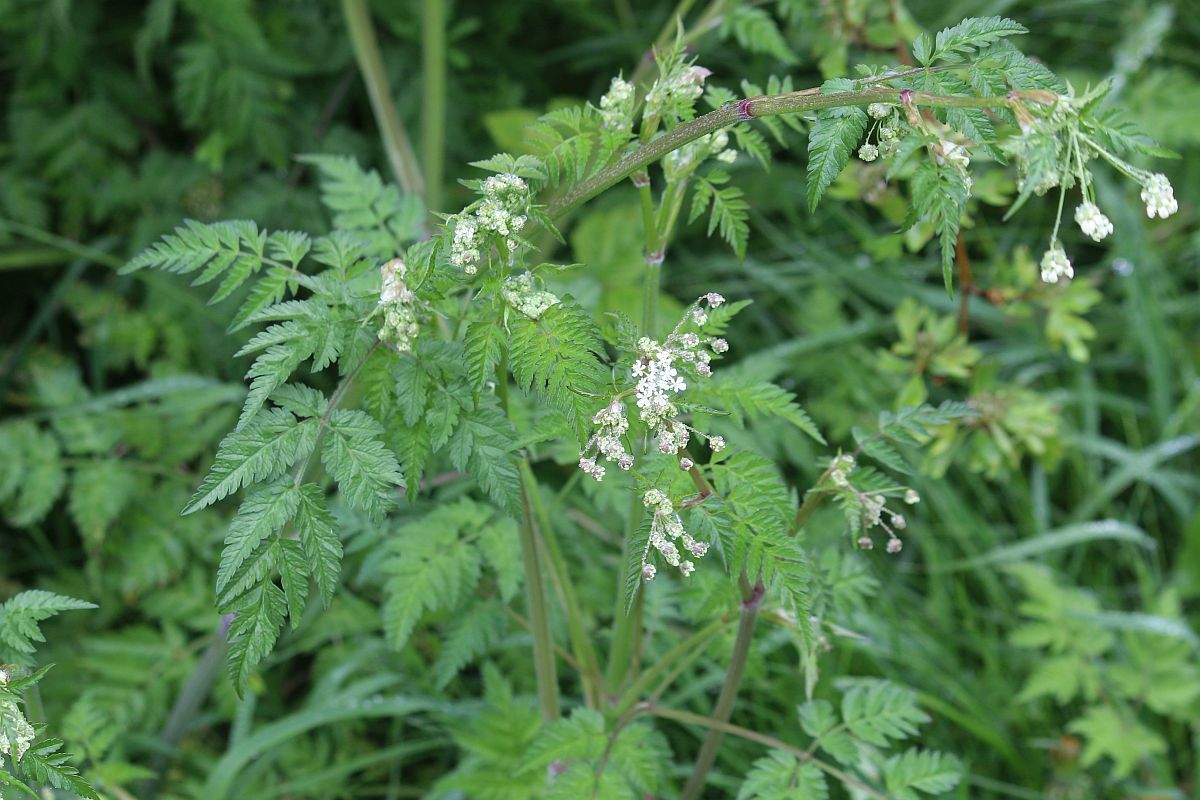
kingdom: Plantae
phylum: Tracheophyta
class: Magnoliopsida
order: Apiales
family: Apiaceae
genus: Anthriscus
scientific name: Anthriscus sylvestris
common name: Cow parsley
